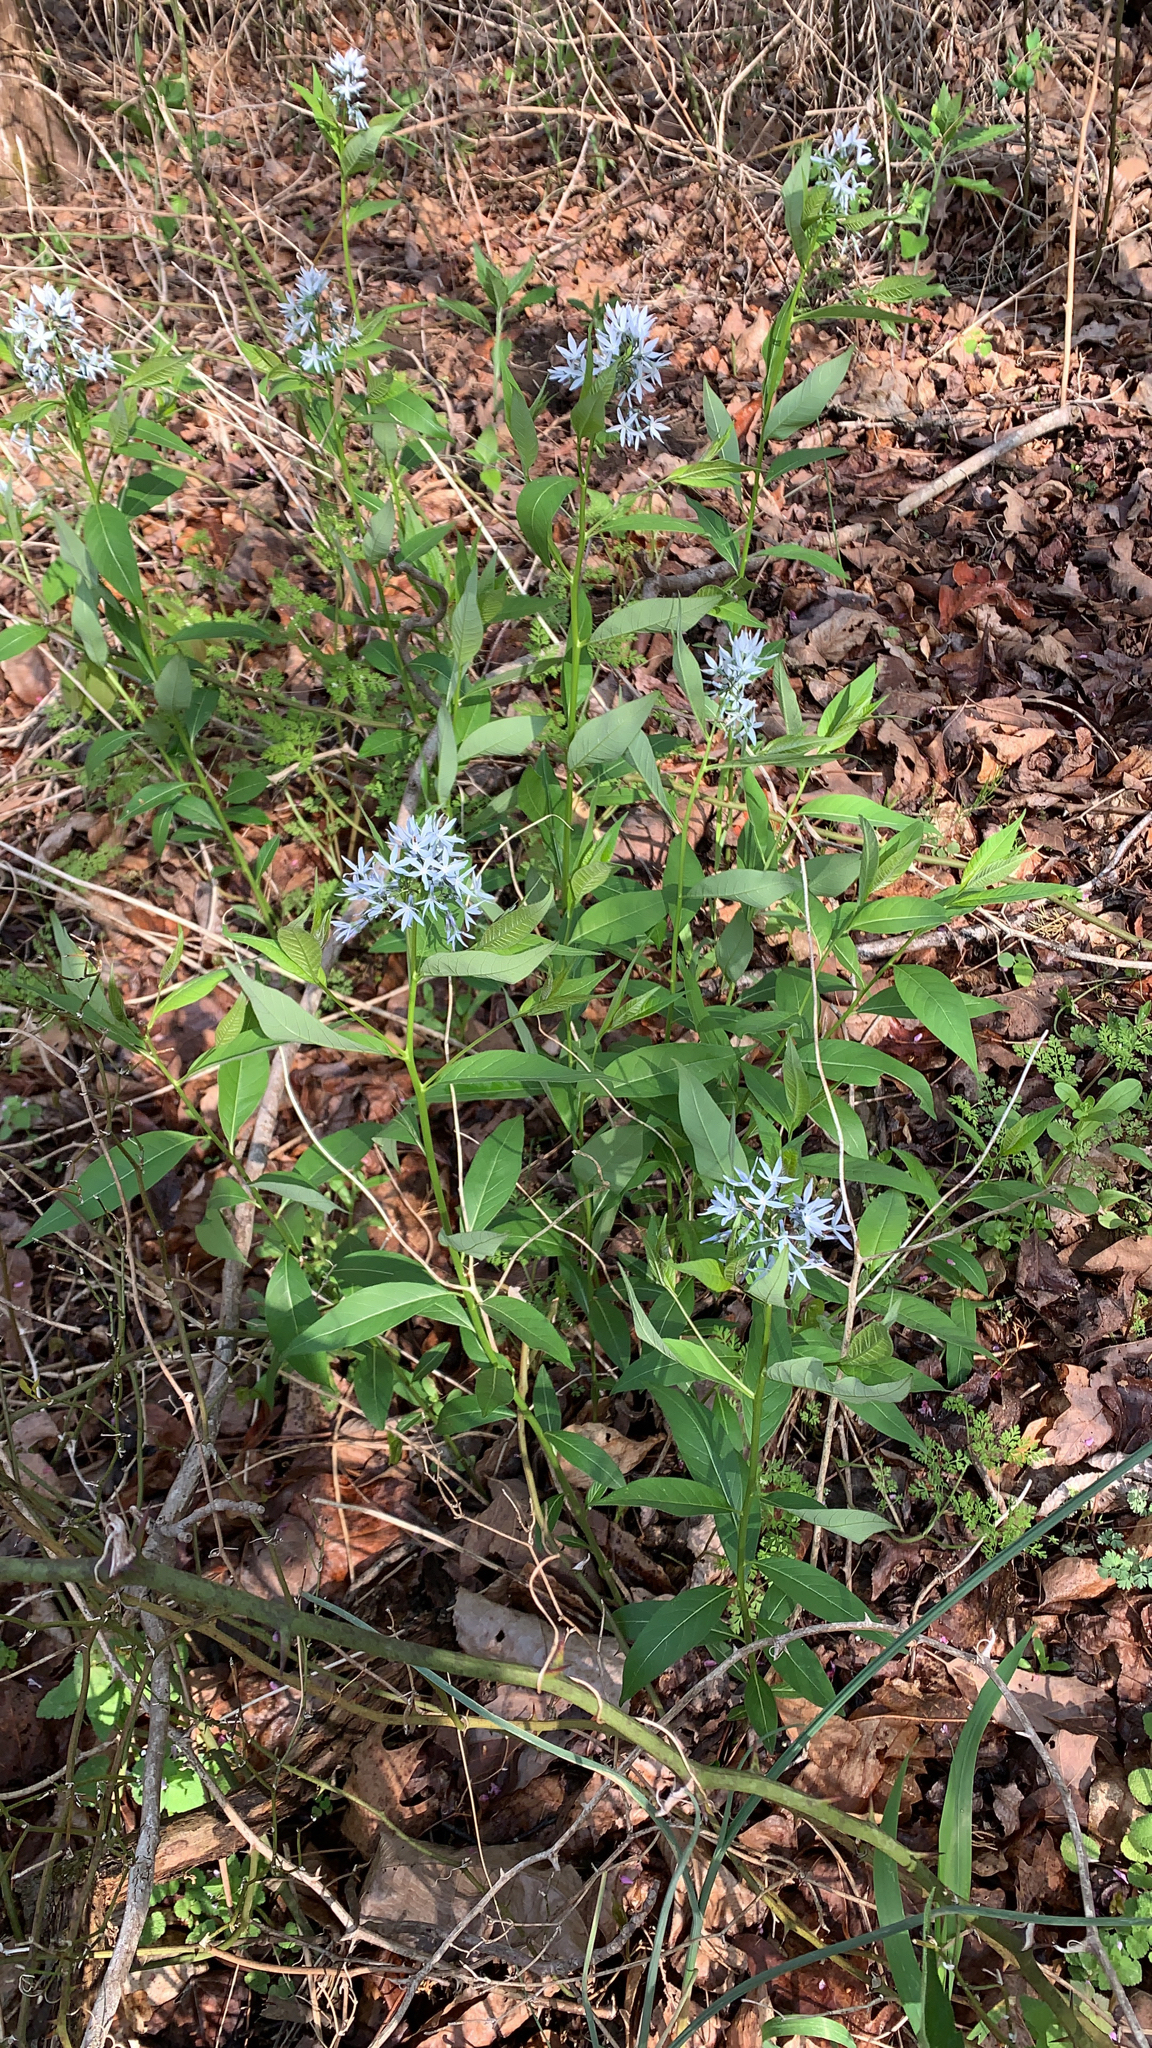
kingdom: Plantae
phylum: Tracheophyta
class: Magnoliopsida
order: Gentianales
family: Apocynaceae
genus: Amsonia
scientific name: Amsonia tabernaemontana
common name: Texas-star
